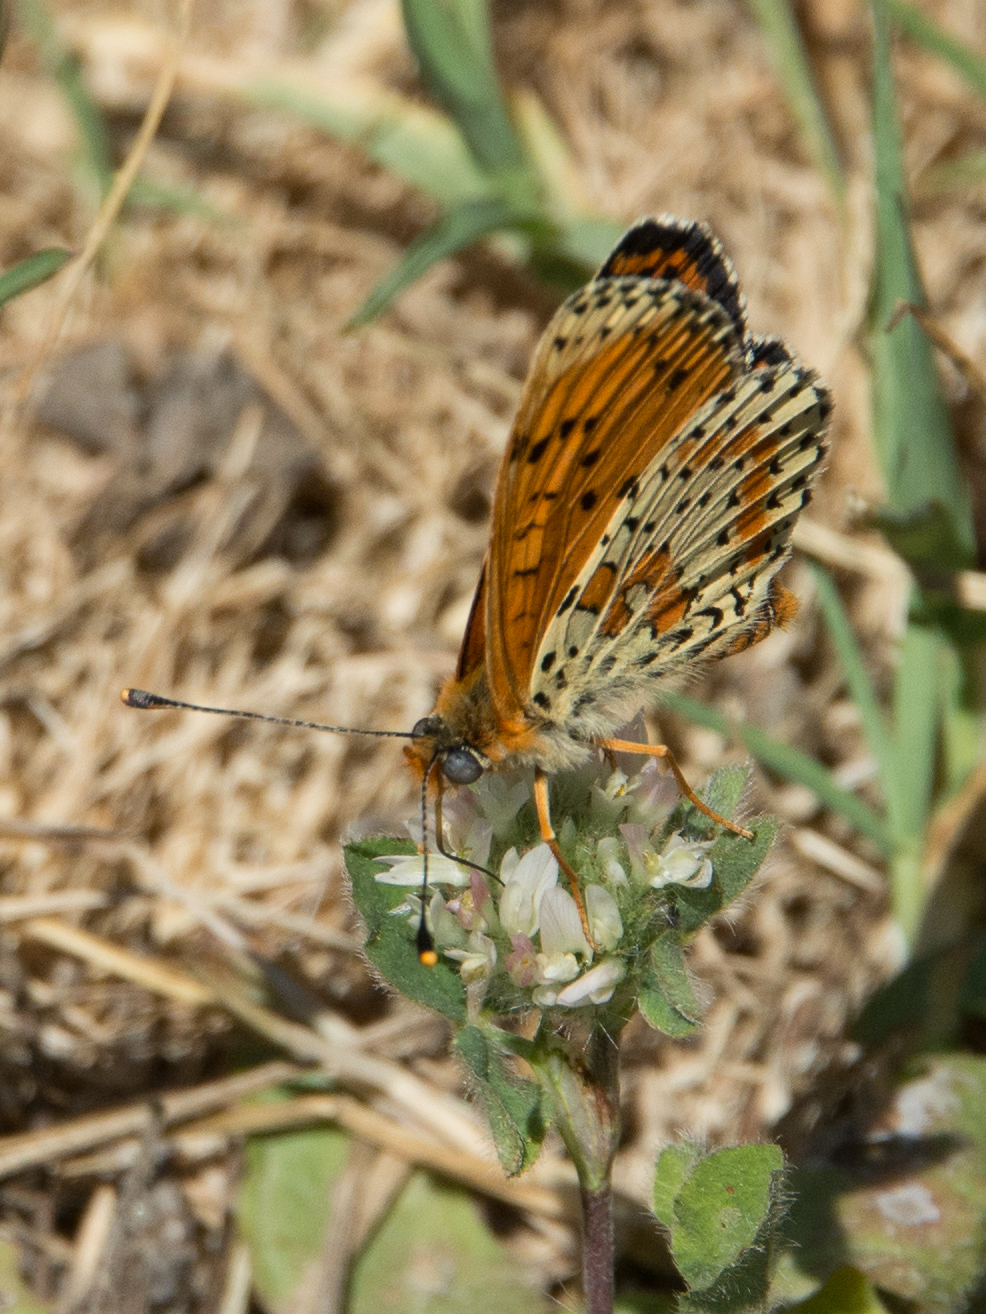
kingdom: Animalia
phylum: Arthropoda
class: Insecta
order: Lepidoptera
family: Nymphalidae
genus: Melitaea
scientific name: Melitaea didyma
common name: Spotted fritillary
